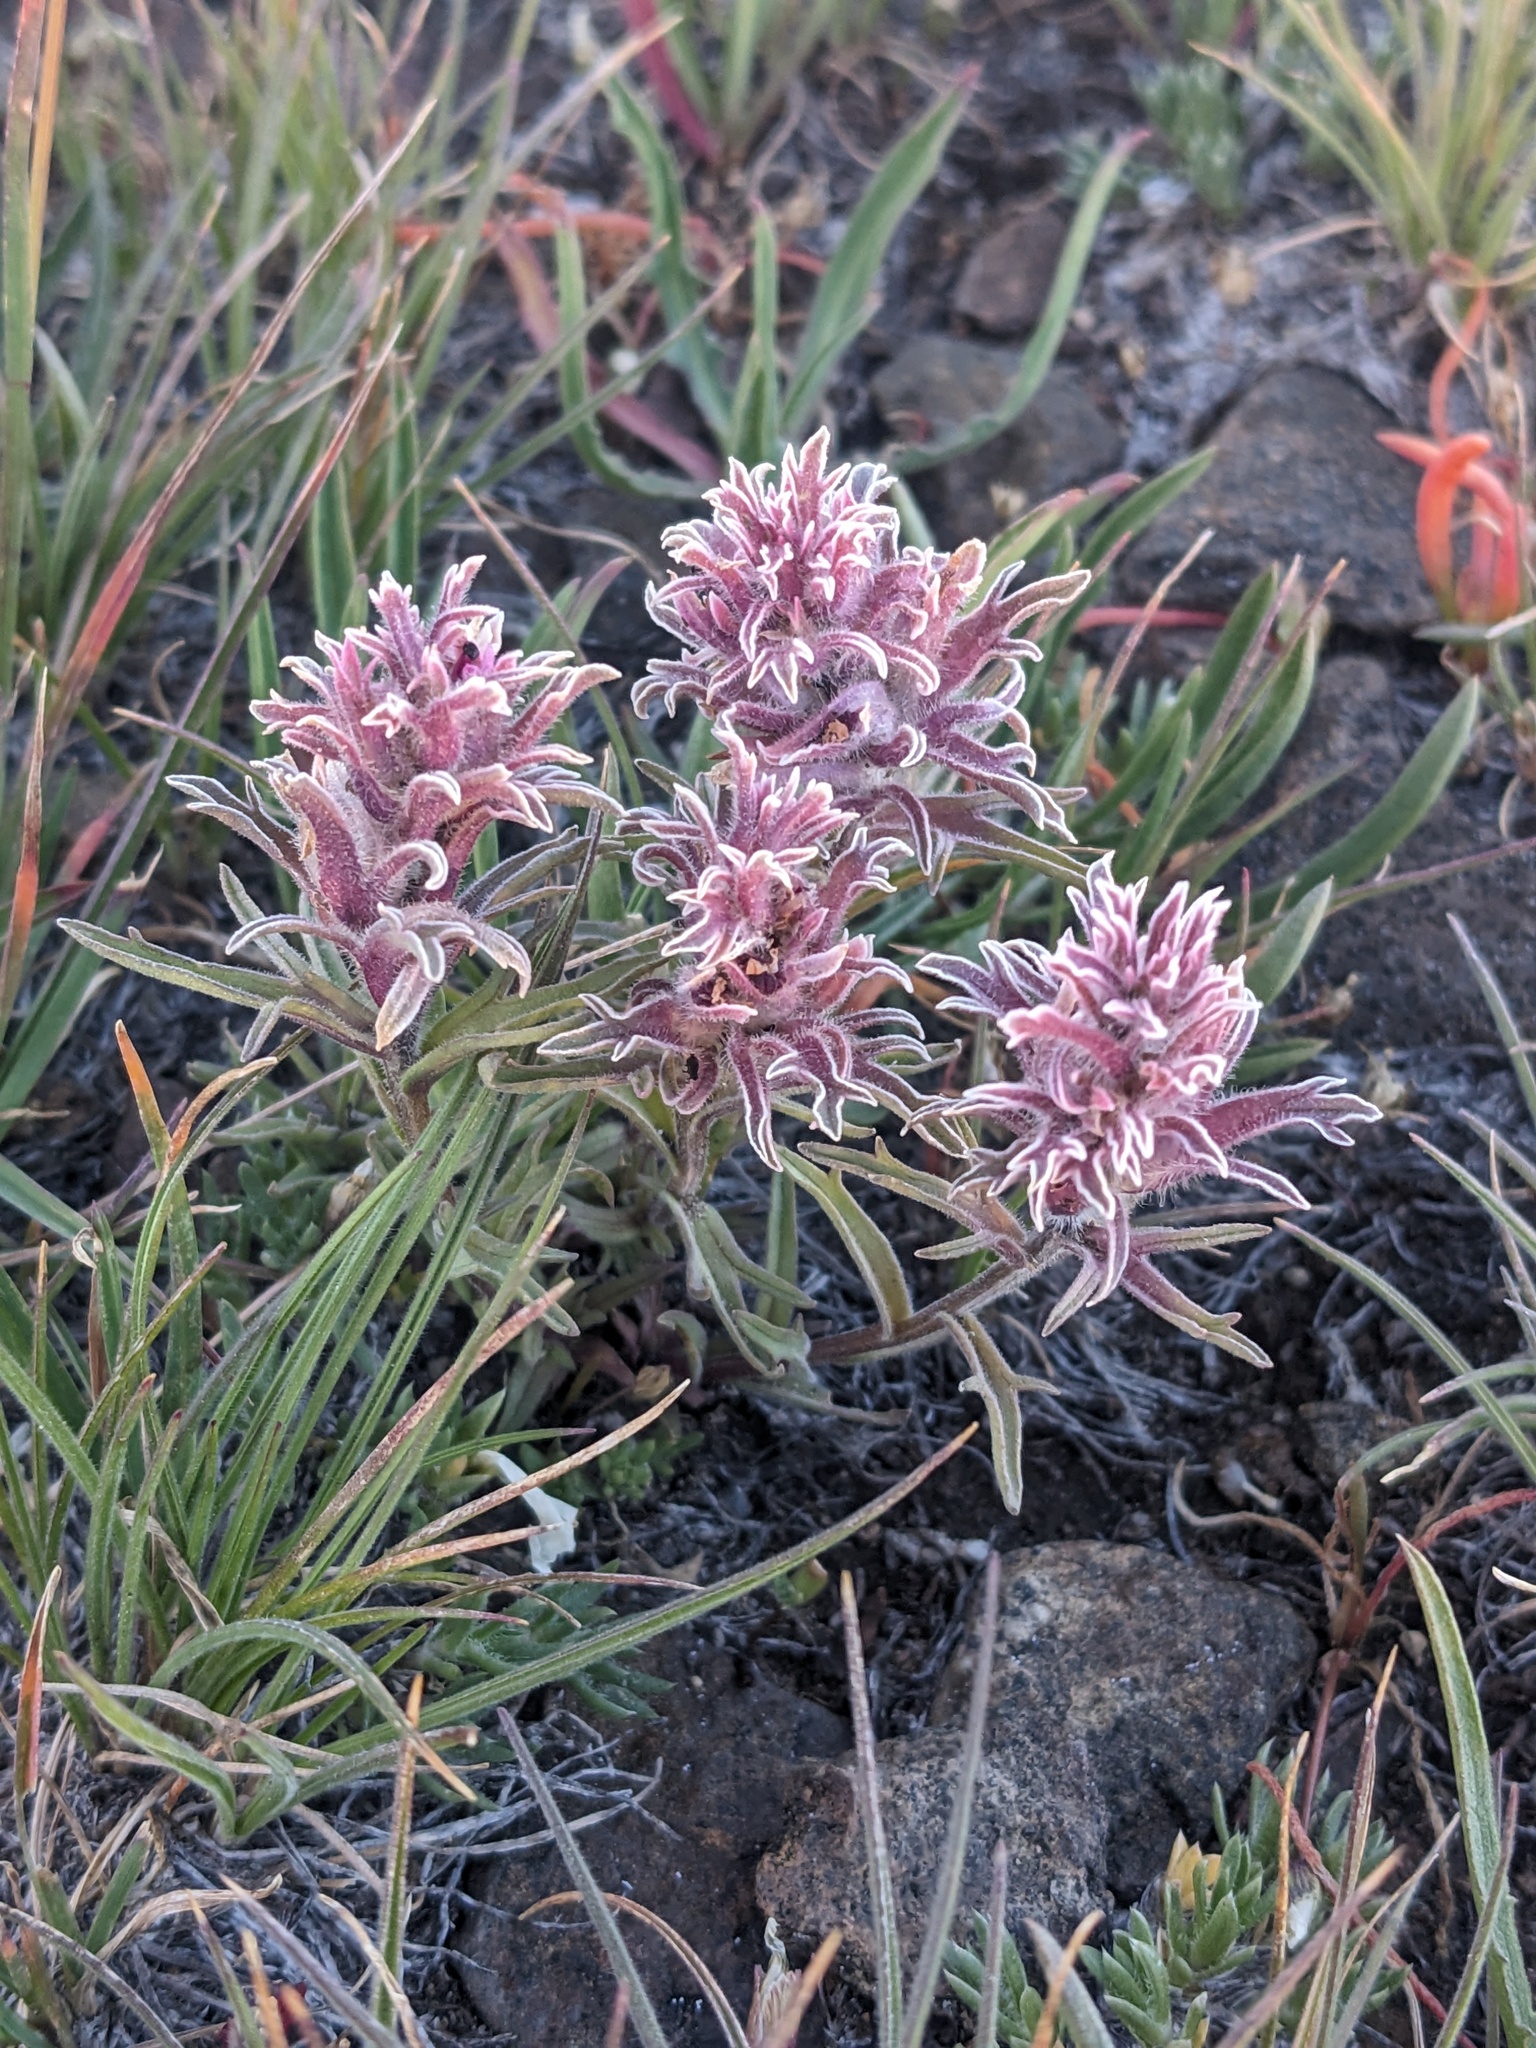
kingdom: Plantae
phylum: Tracheophyta
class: Magnoliopsida
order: Lamiales
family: Orobanchaceae
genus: Castilleja
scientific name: Castilleja nana
